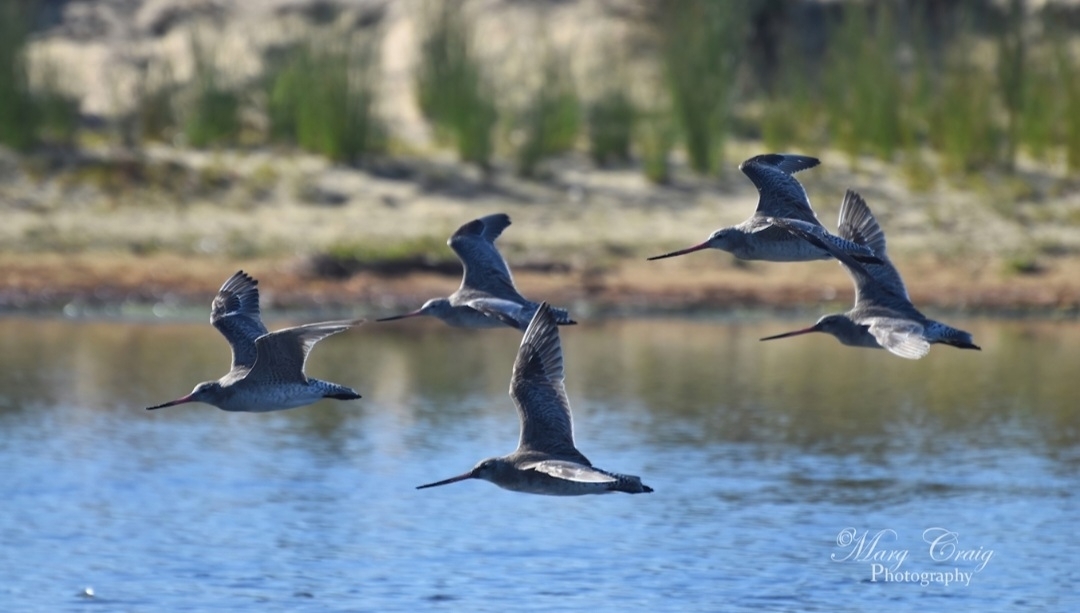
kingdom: Animalia
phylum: Chordata
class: Aves
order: Charadriiformes
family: Scolopacidae
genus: Limosa
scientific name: Limosa lapponica
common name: Bar-tailed godwit
